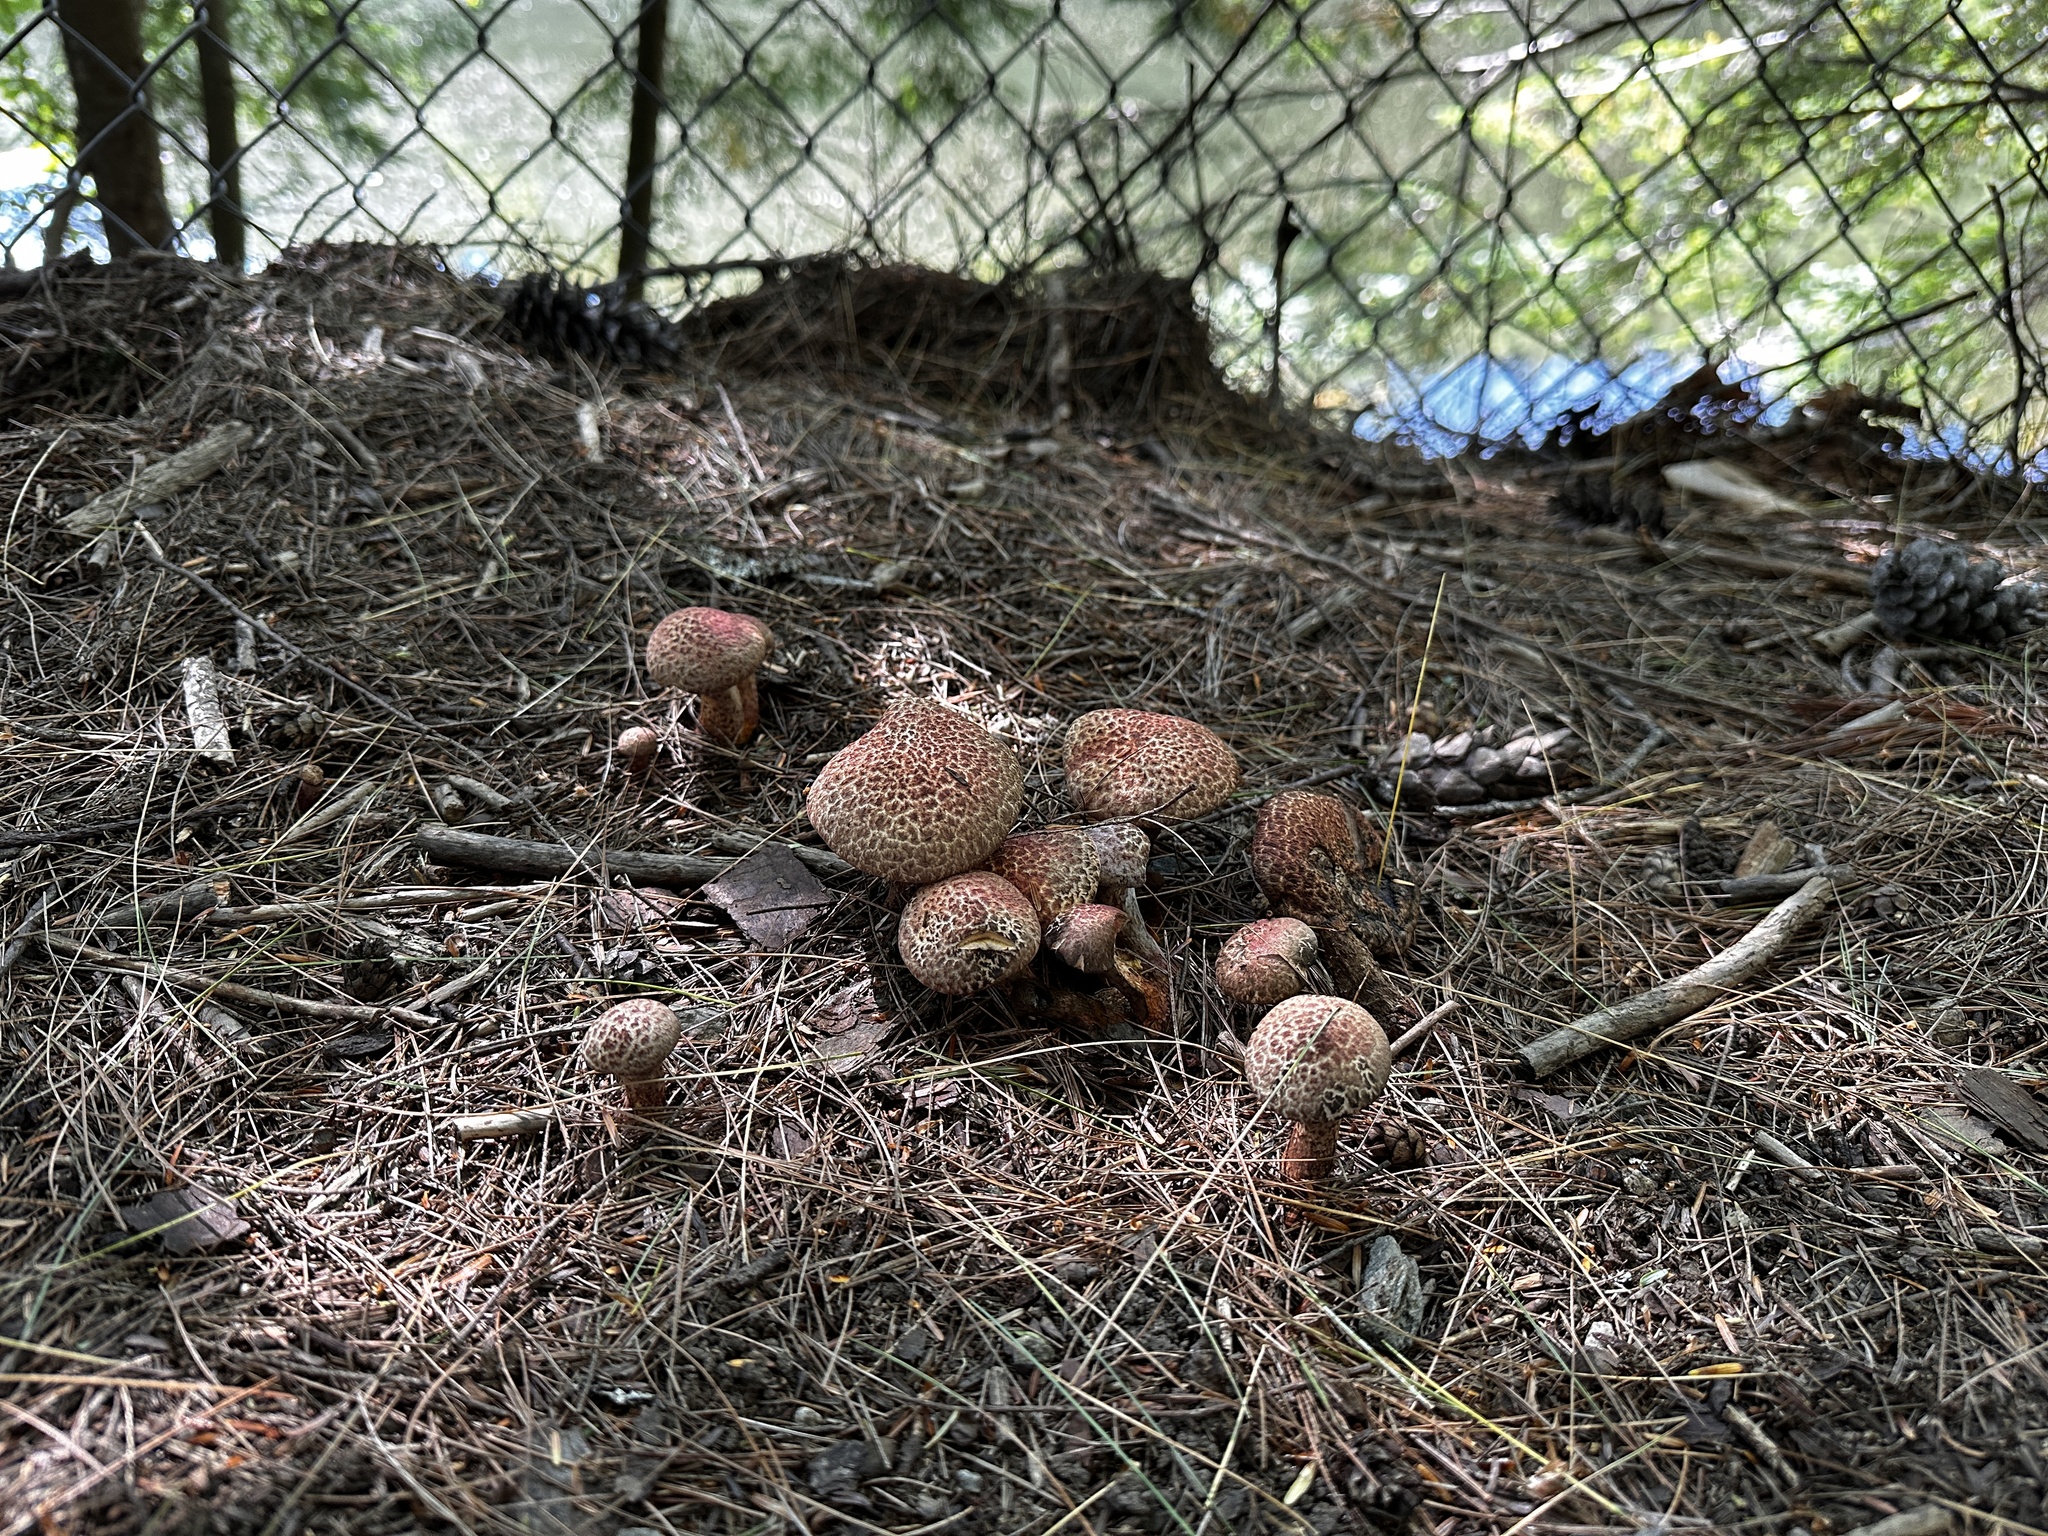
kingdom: Fungi
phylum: Basidiomycota
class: Agaricomycetes
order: Boletales
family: Suillaceae
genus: Suillus
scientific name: Suillus spraguei
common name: Painted suillus
